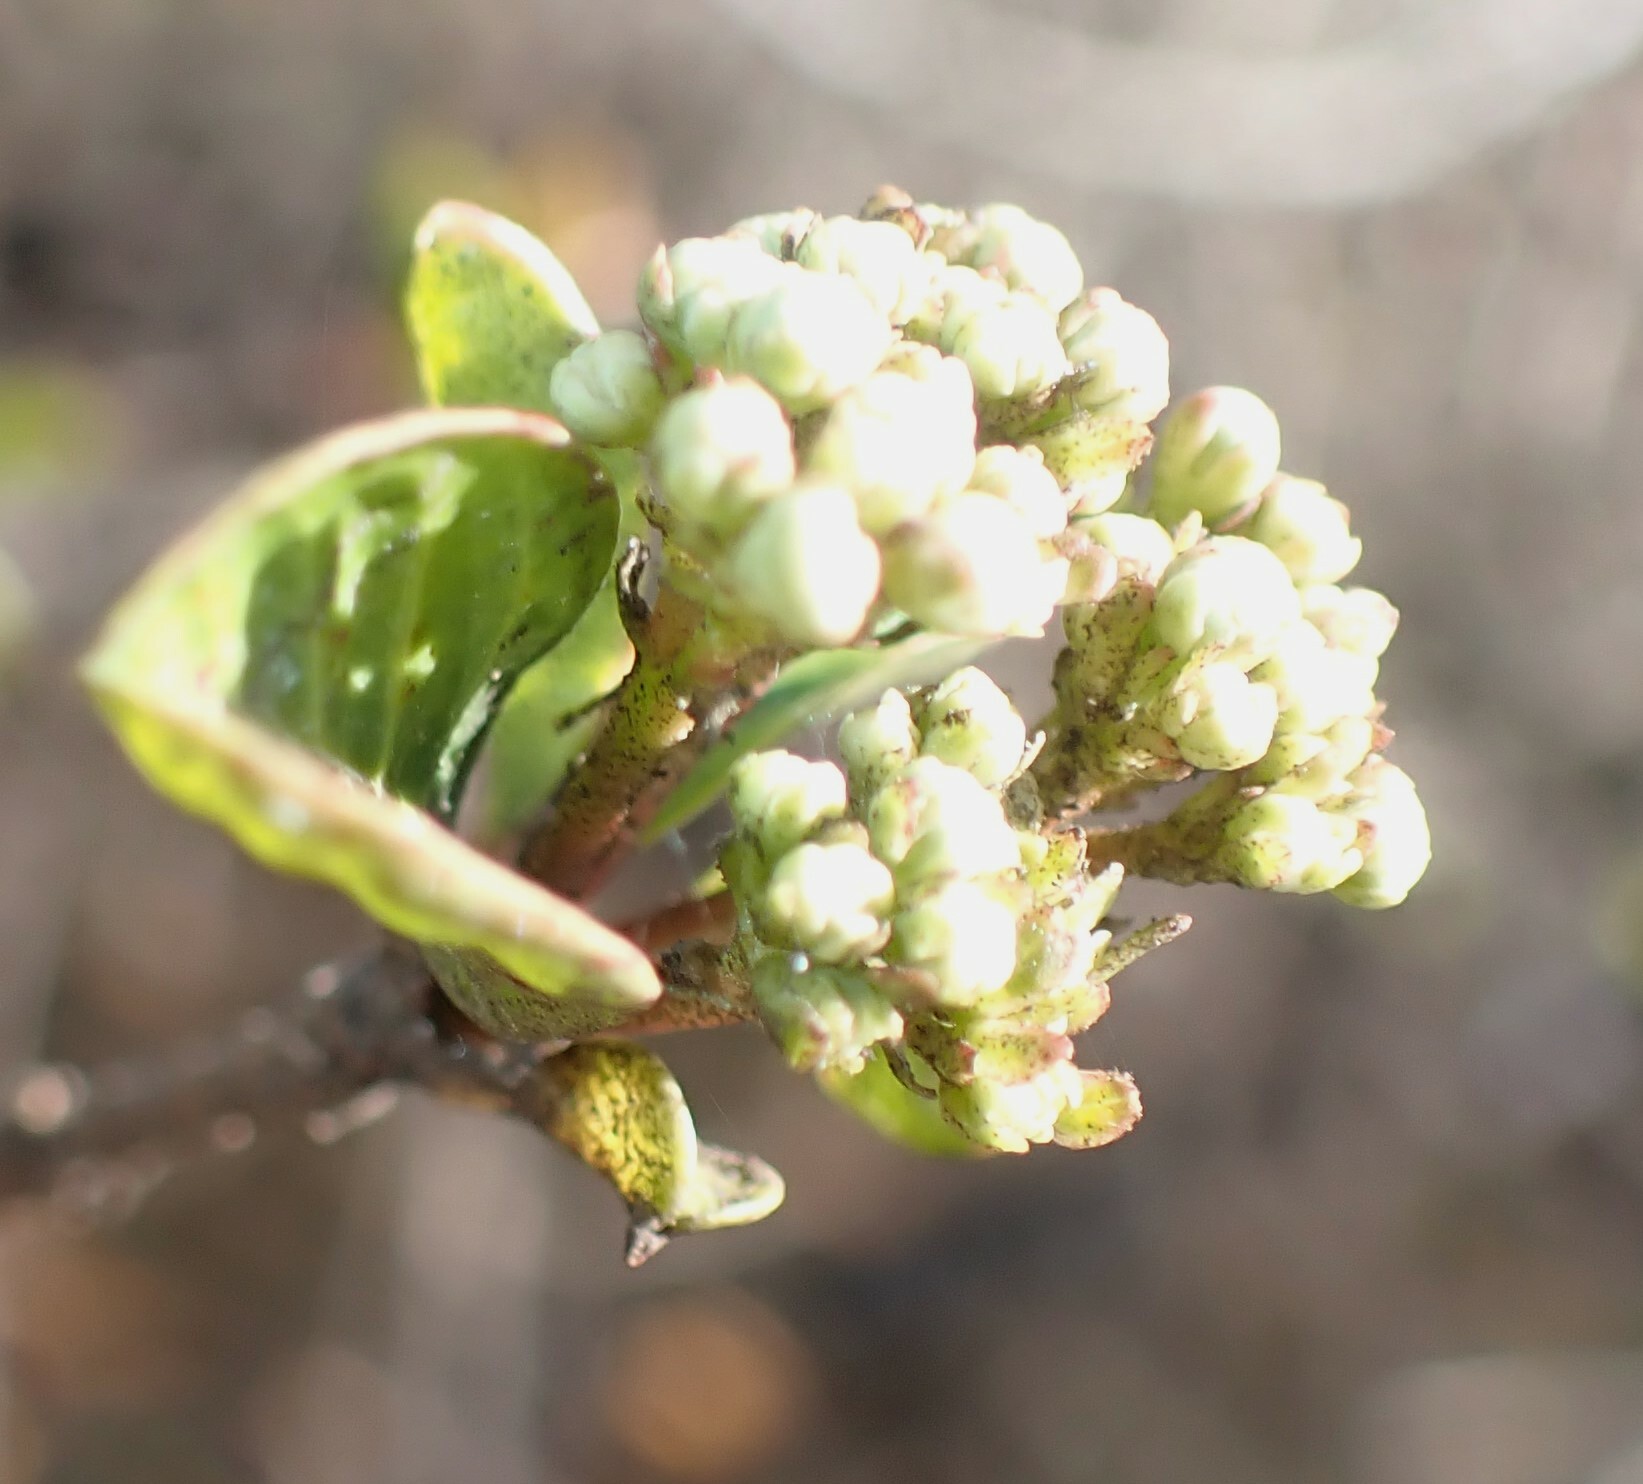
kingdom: Plantae
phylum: Tracheophyta
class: Magnoliopsida
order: Dipsacales
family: Viburnaceae
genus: Viburnum
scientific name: Viburnum obovatum
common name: Walter's viburnum
